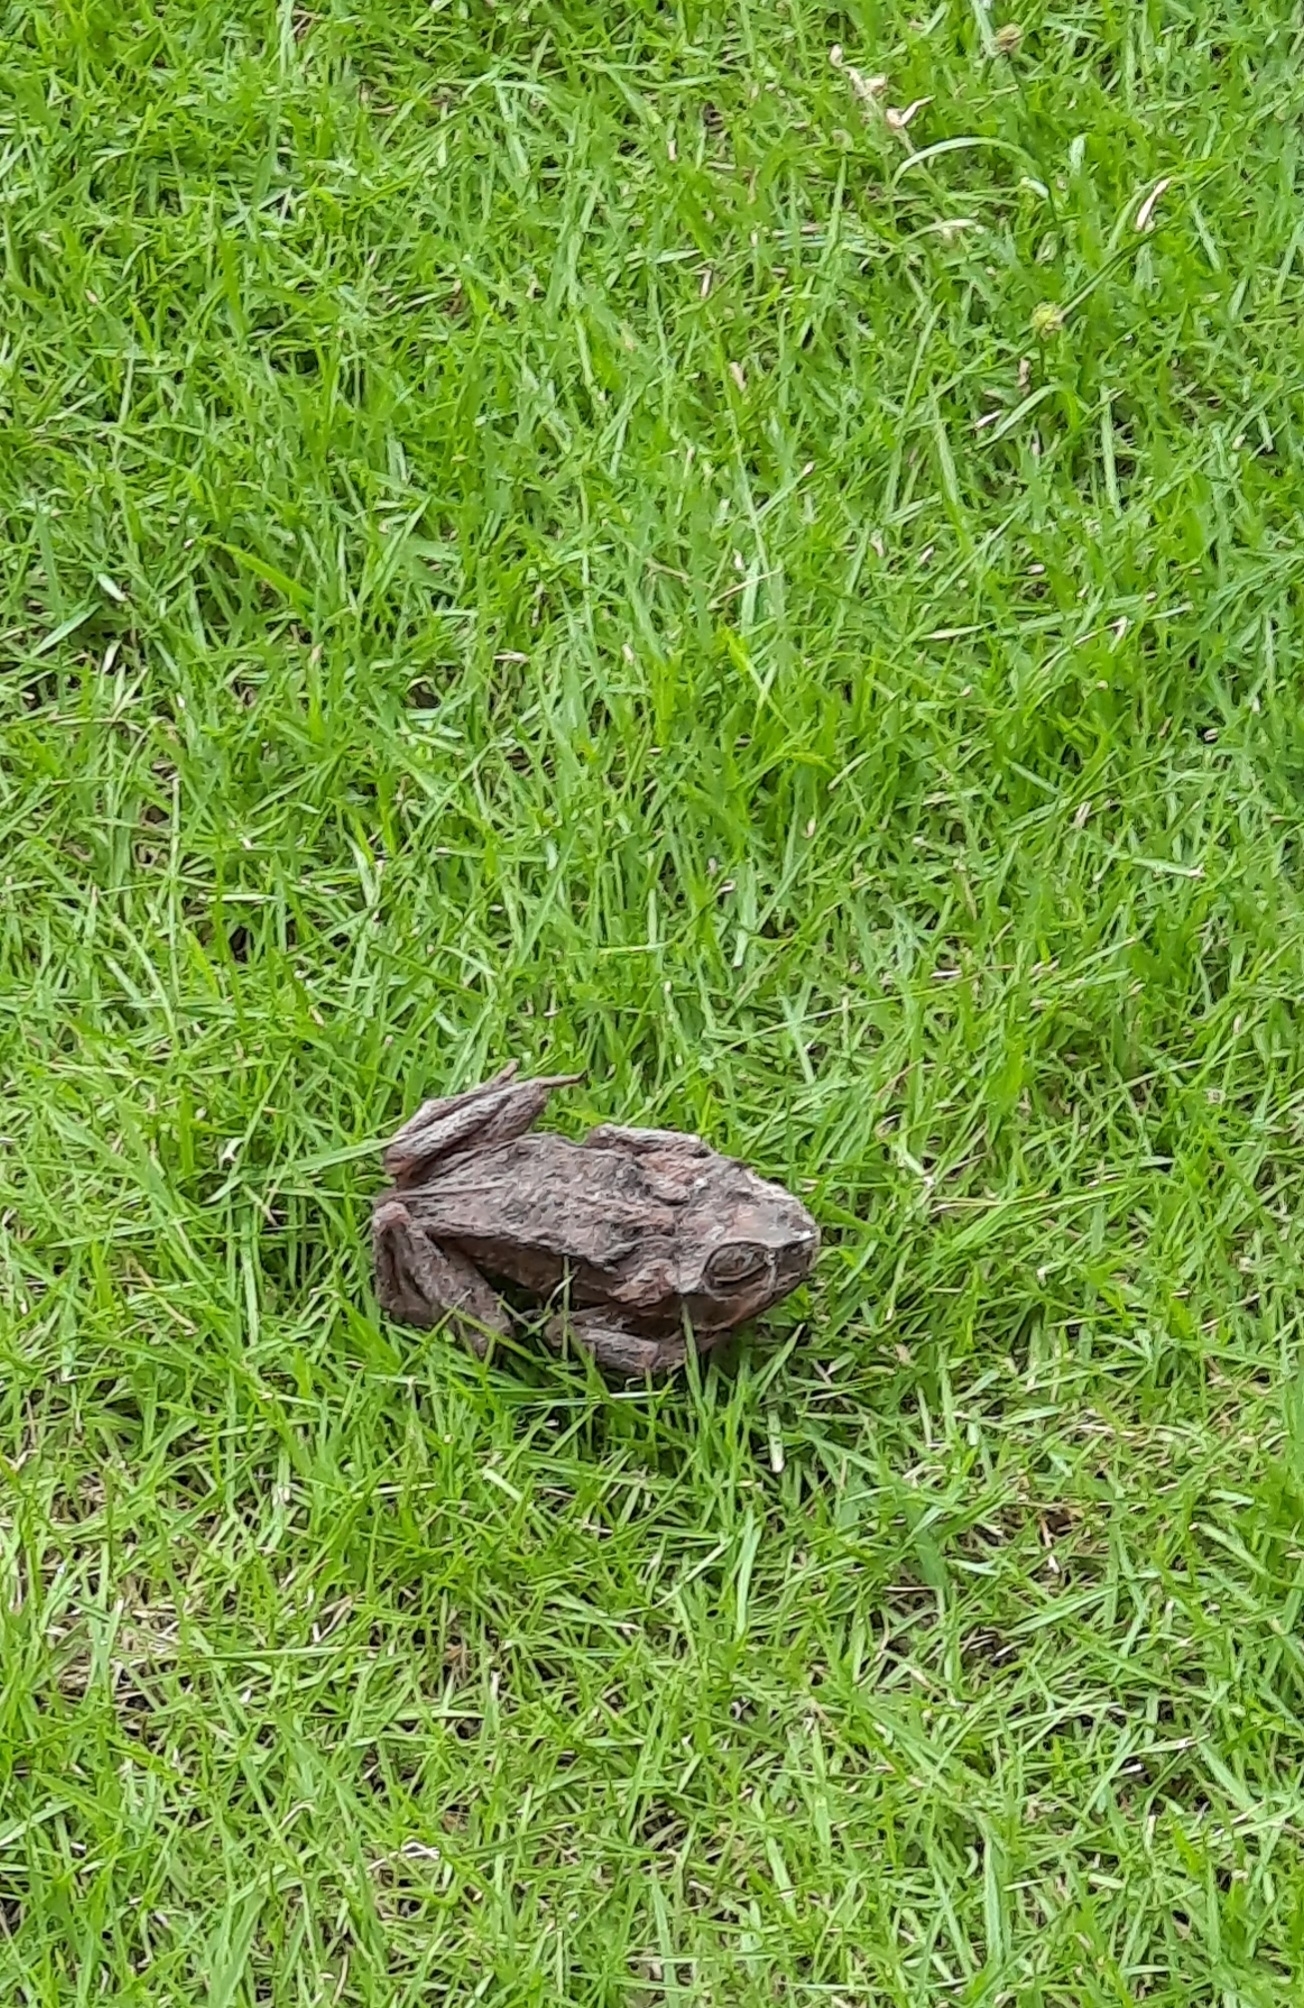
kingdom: Animalia
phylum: Chordata
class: Amphibia
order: Anura
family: Bufonidae
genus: Rhinella
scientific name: Rhinella horribilis
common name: Mesoamerican cane toad
